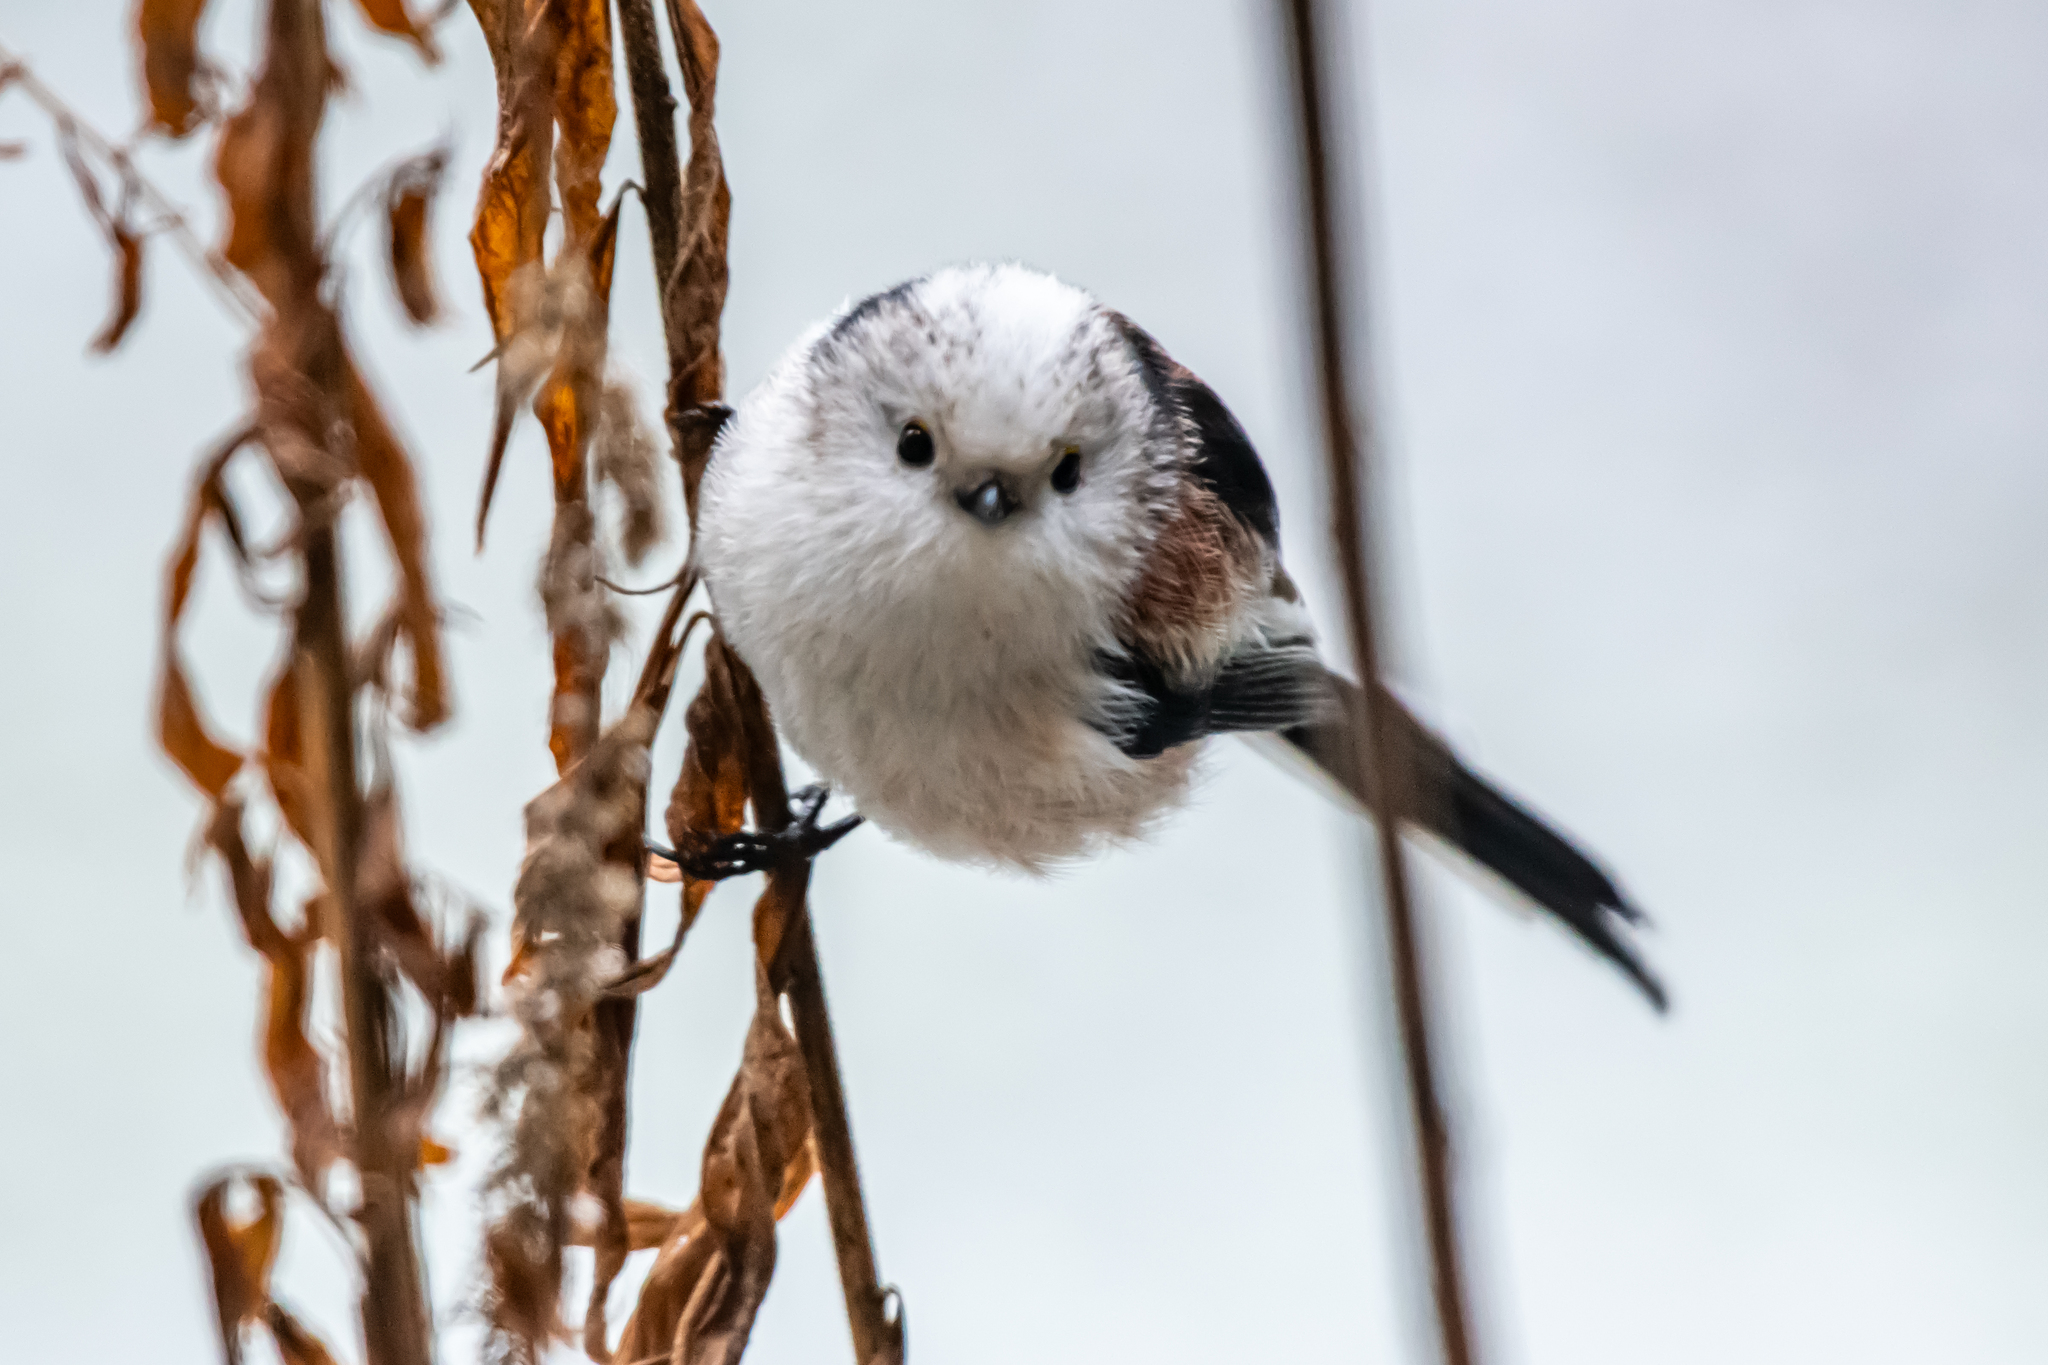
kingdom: Animalia
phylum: Chordata
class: Aves
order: Passeriformes
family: Aegithalidae
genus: Aegithalos
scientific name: Aegithalos caudatus
